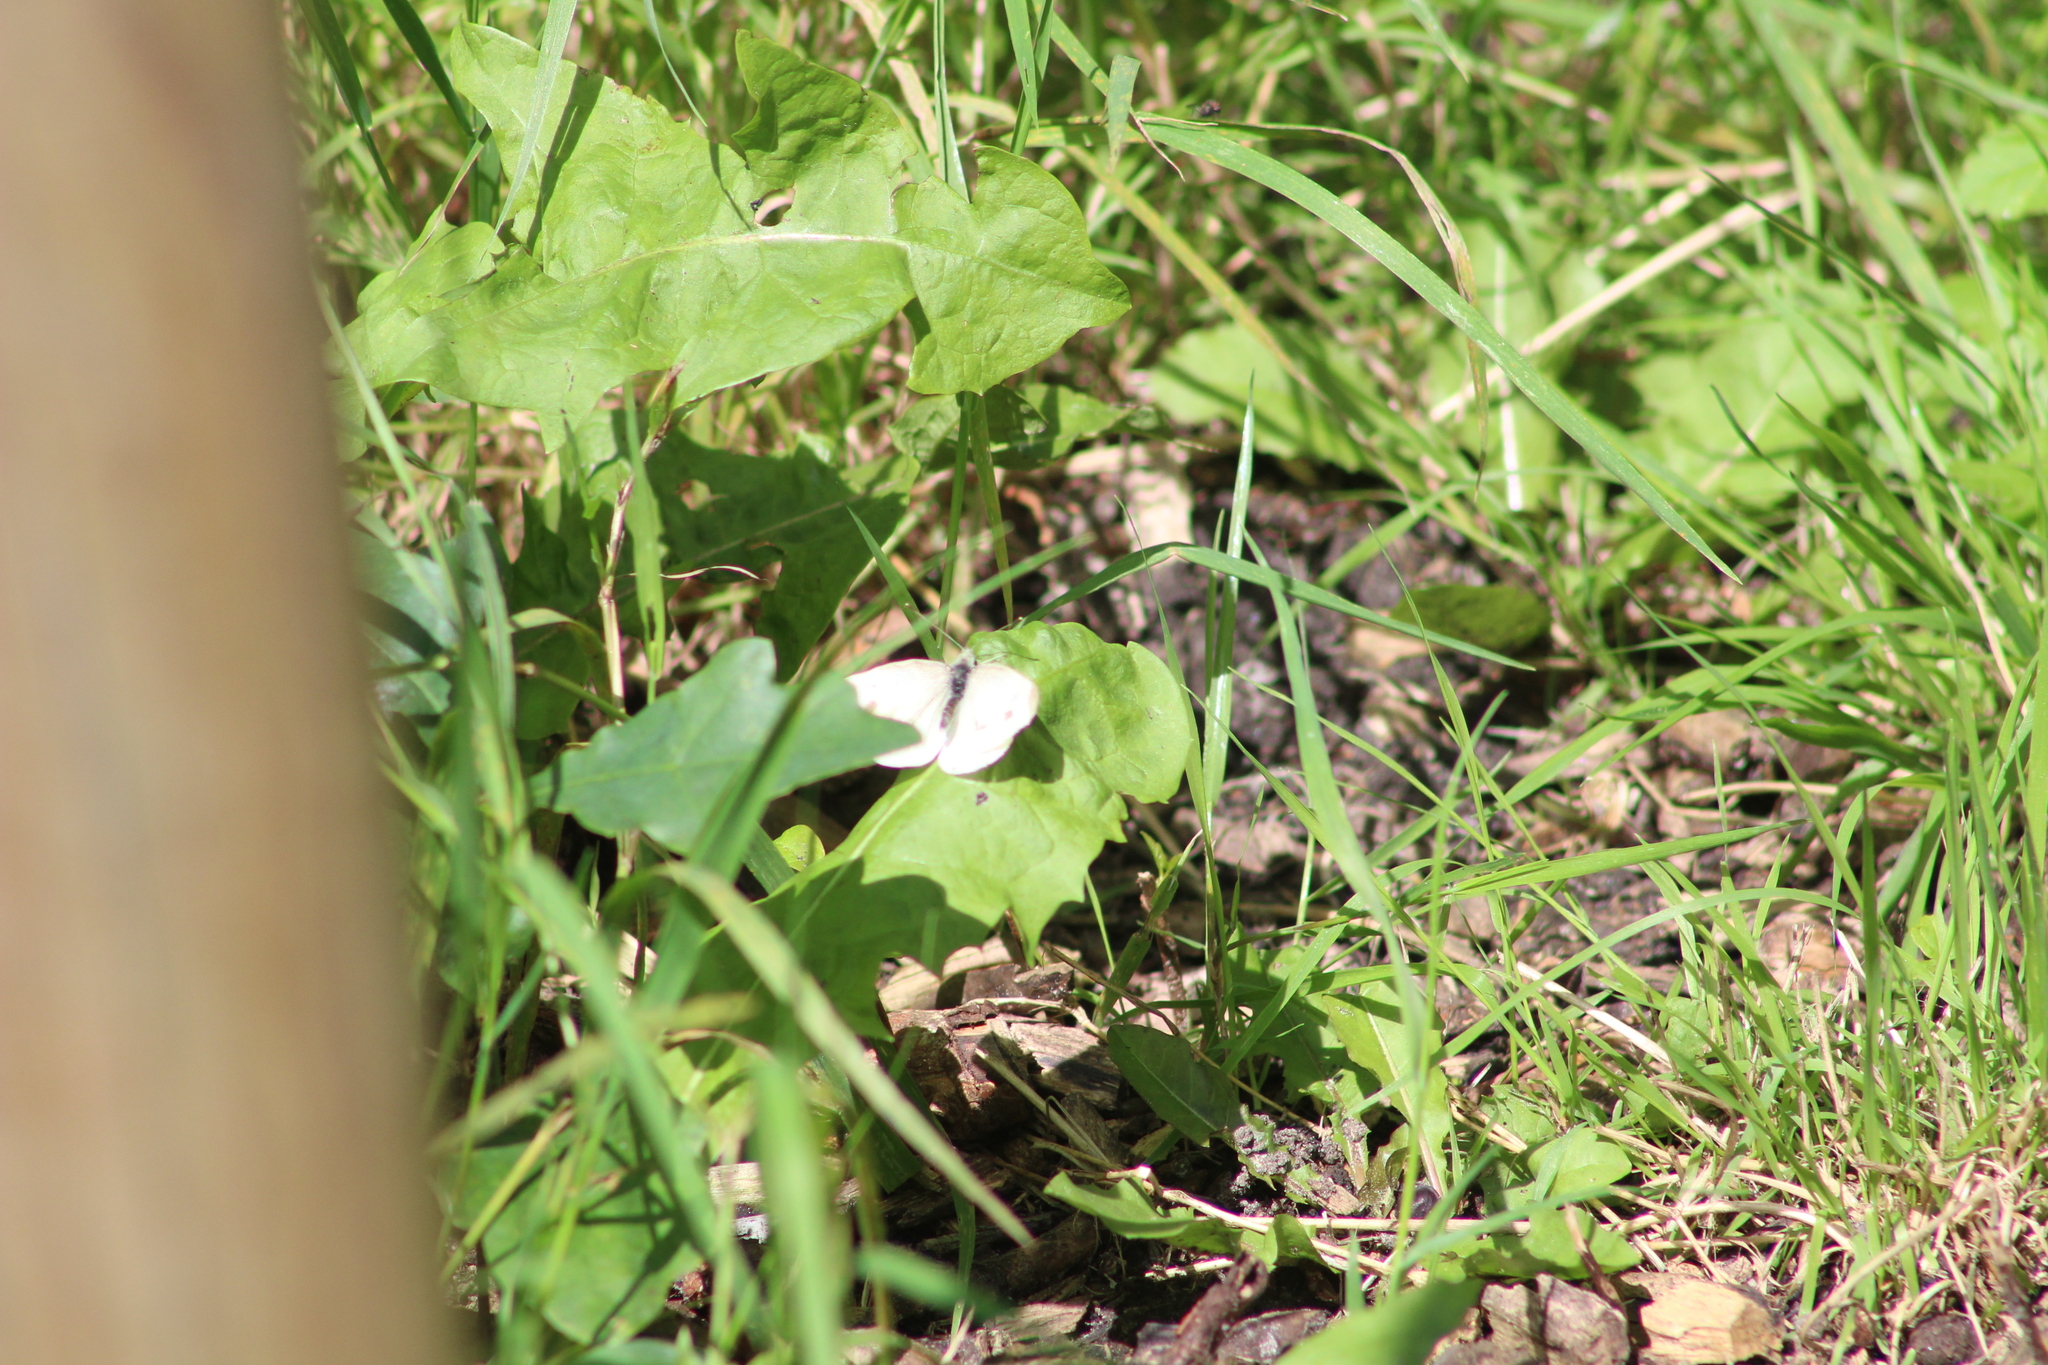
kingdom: Animalia
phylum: Arthropoda
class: Insecta
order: Lepidoptera
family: Pieridae
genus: Pieris
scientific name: Pieris rapae
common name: Small white
